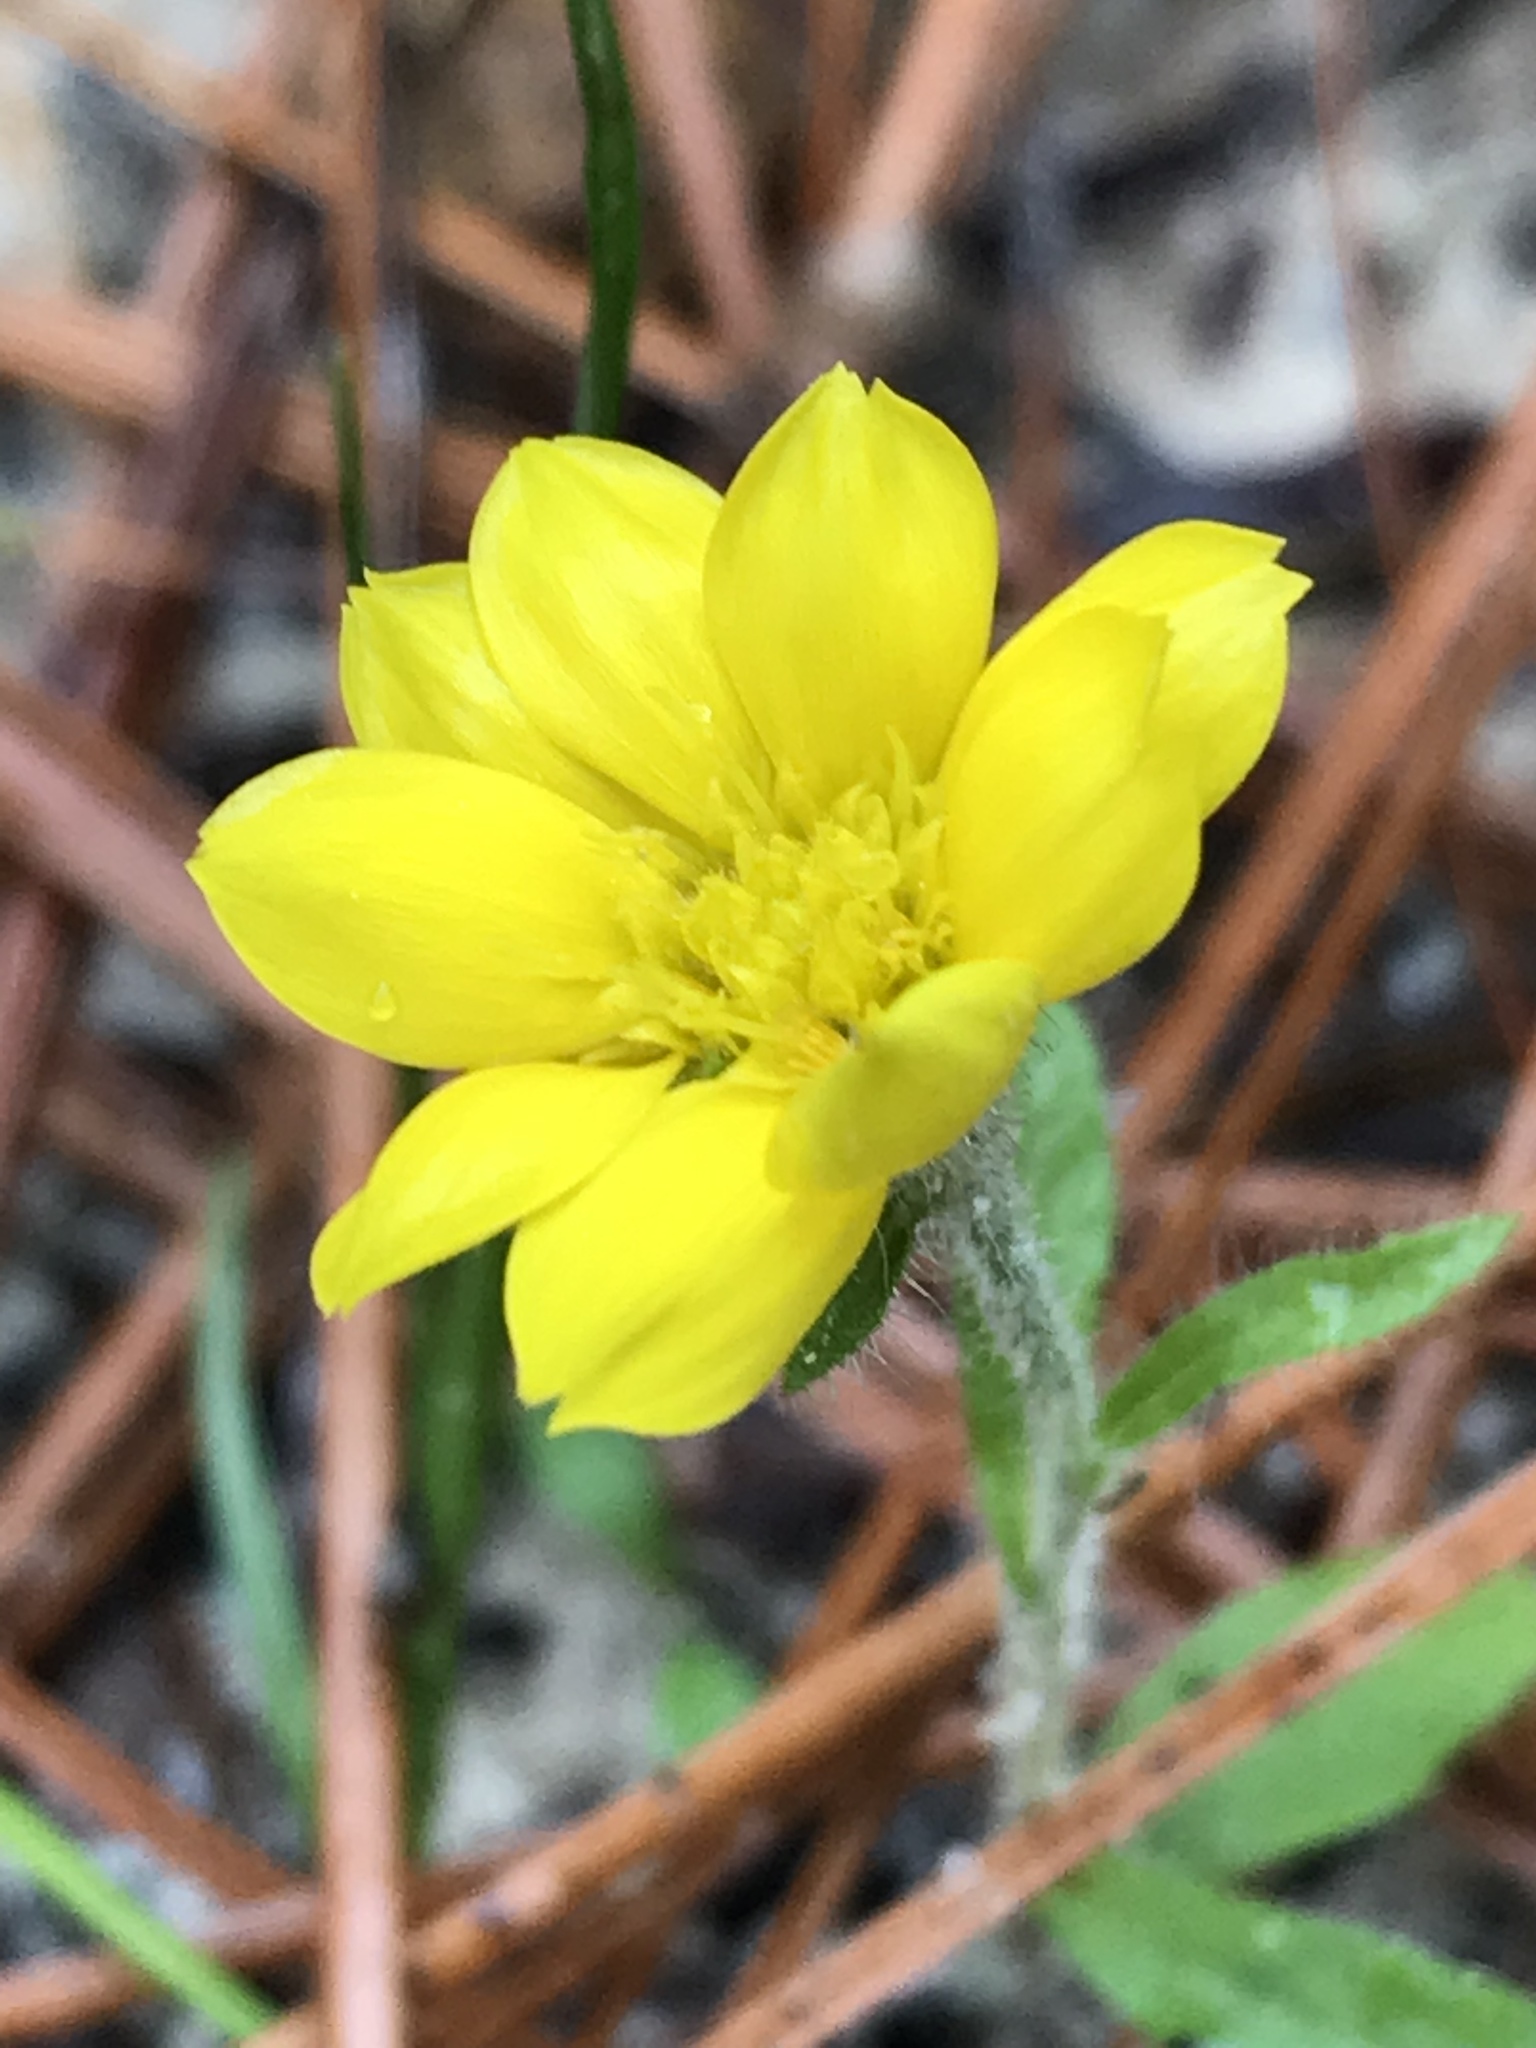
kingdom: Plantae
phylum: Tracheophyta
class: Magnoliopsida
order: Asterales
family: Asteraceae
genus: Chrysopsis
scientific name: Chrysopsis mariana
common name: Maryland golden-aster
